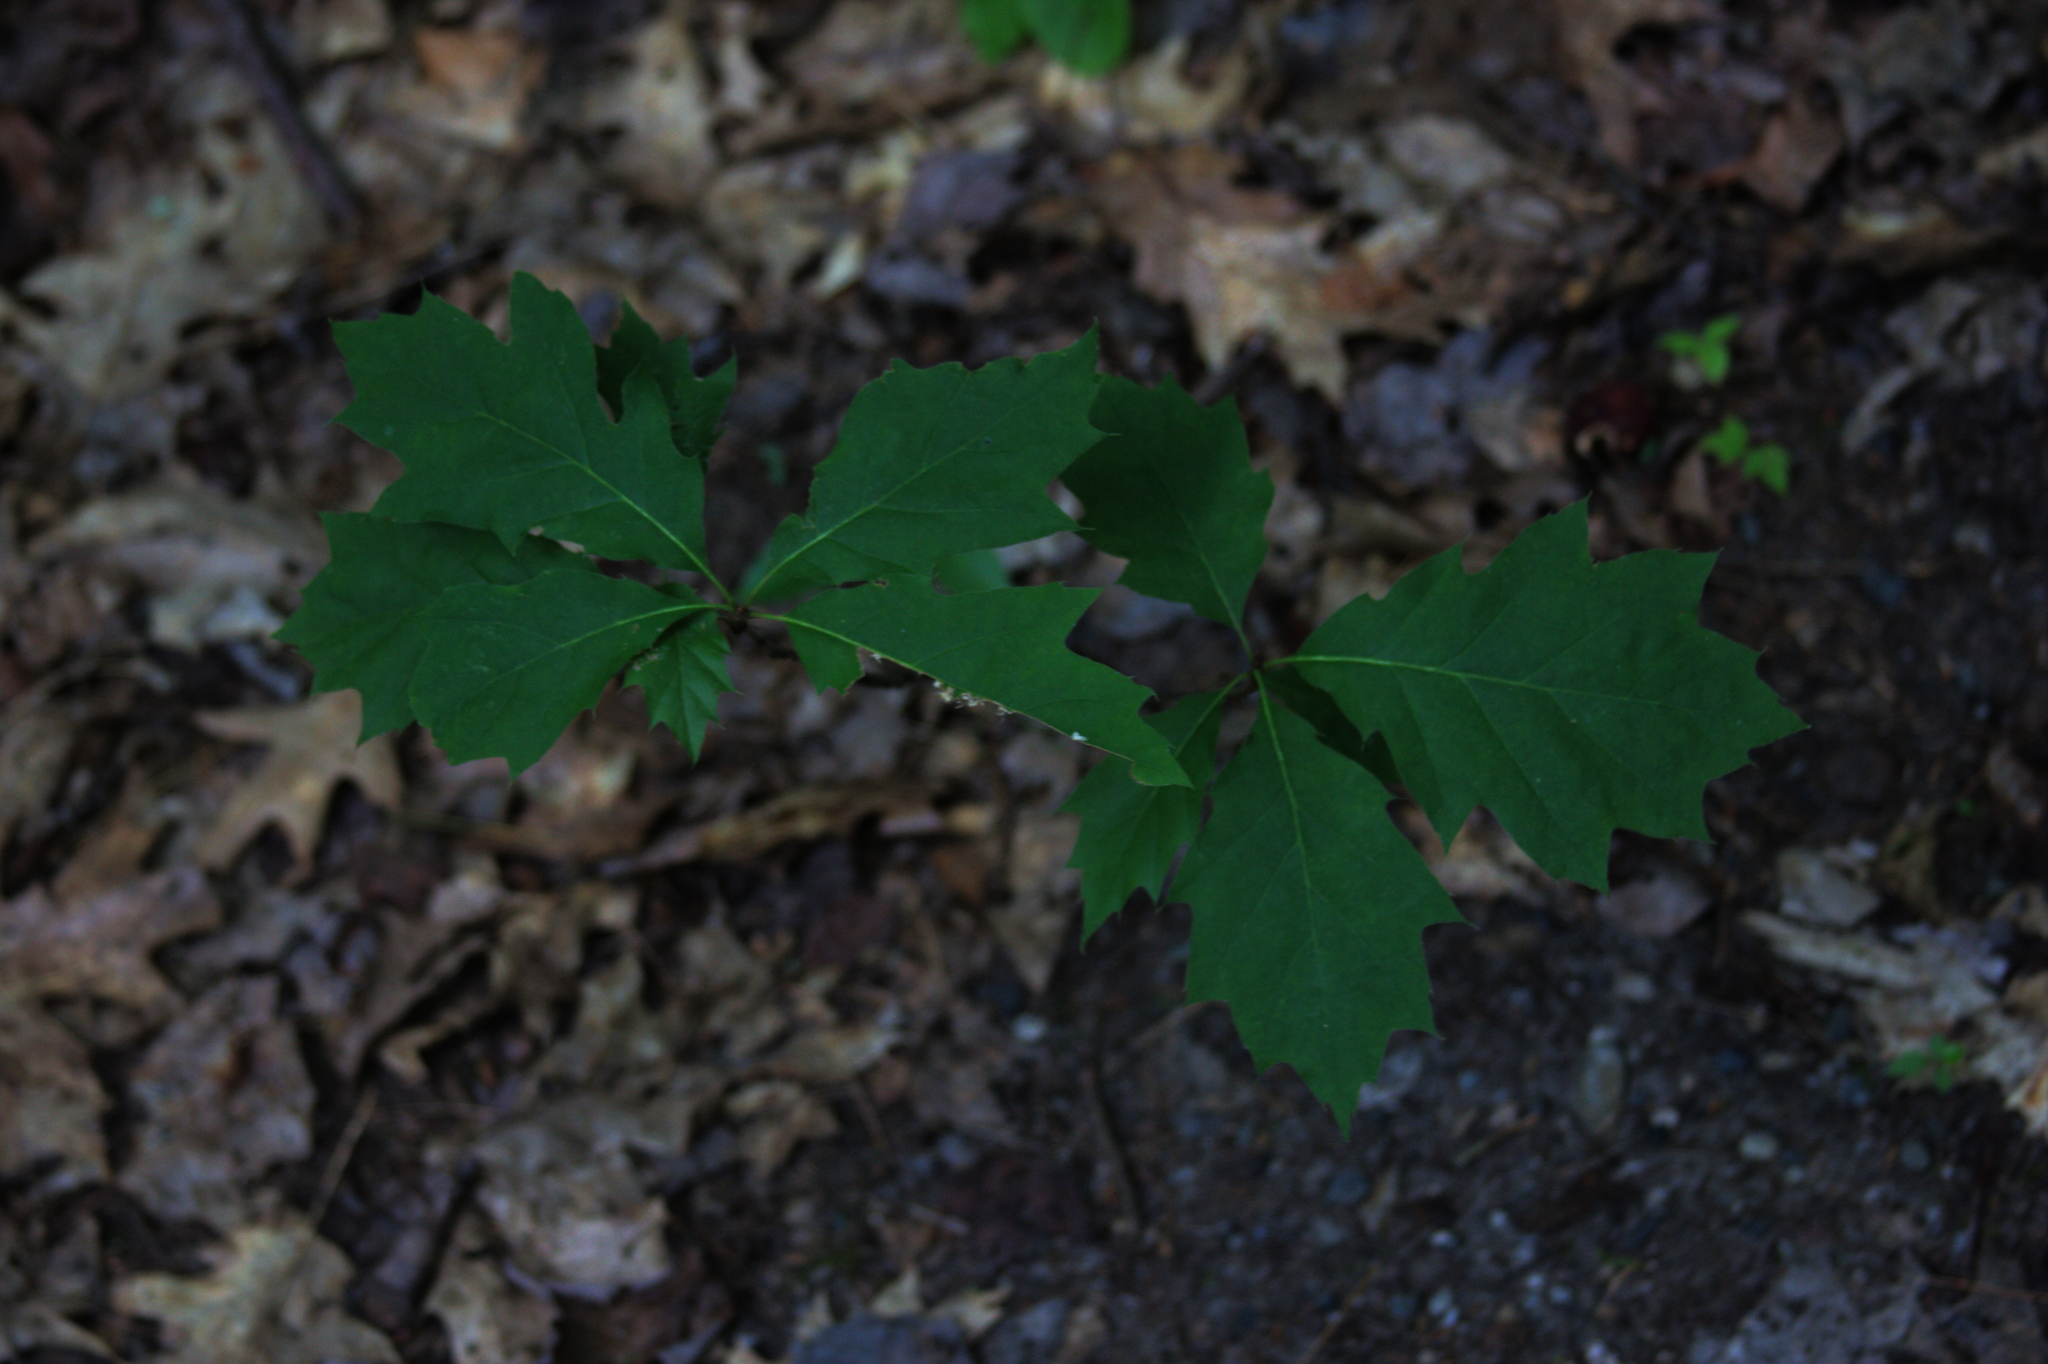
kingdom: Plantae
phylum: Tracheophyta
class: Magnoliopsida
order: Fagales
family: Fagaceae
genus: Quercus
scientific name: Quercus rubra
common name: Red oak
